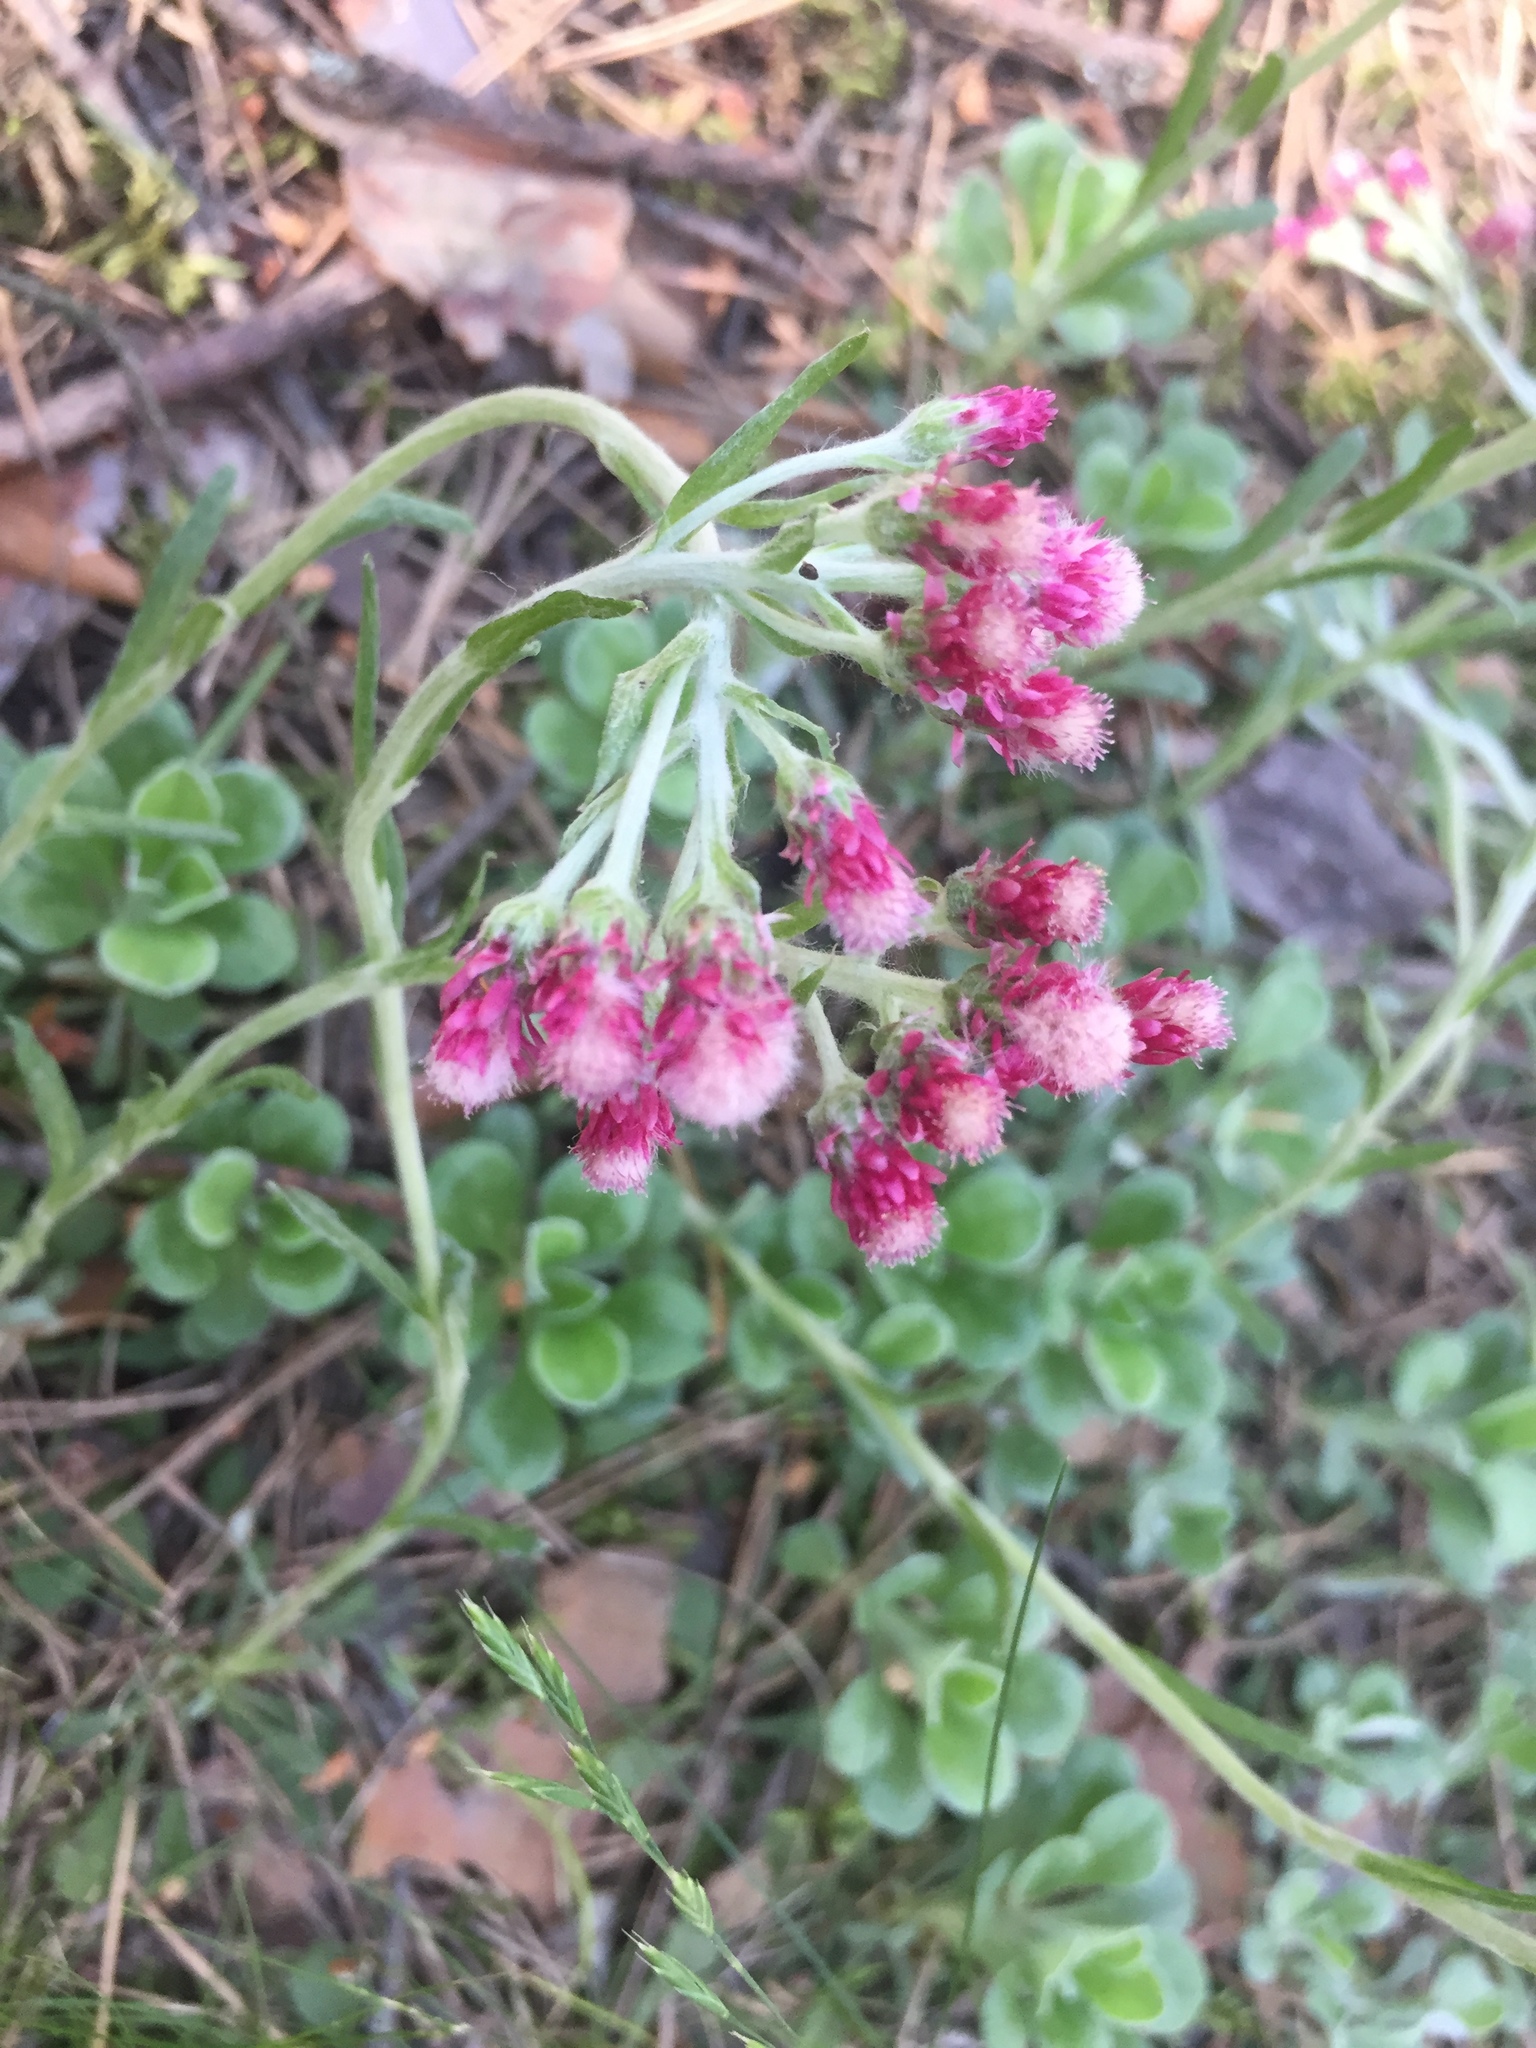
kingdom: Plantae
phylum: Tracheophyta
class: Magnoliopsida
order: Asterales
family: Asteraceae
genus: Antennaria
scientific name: Antennaria dioica
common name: Mountain everlasting
